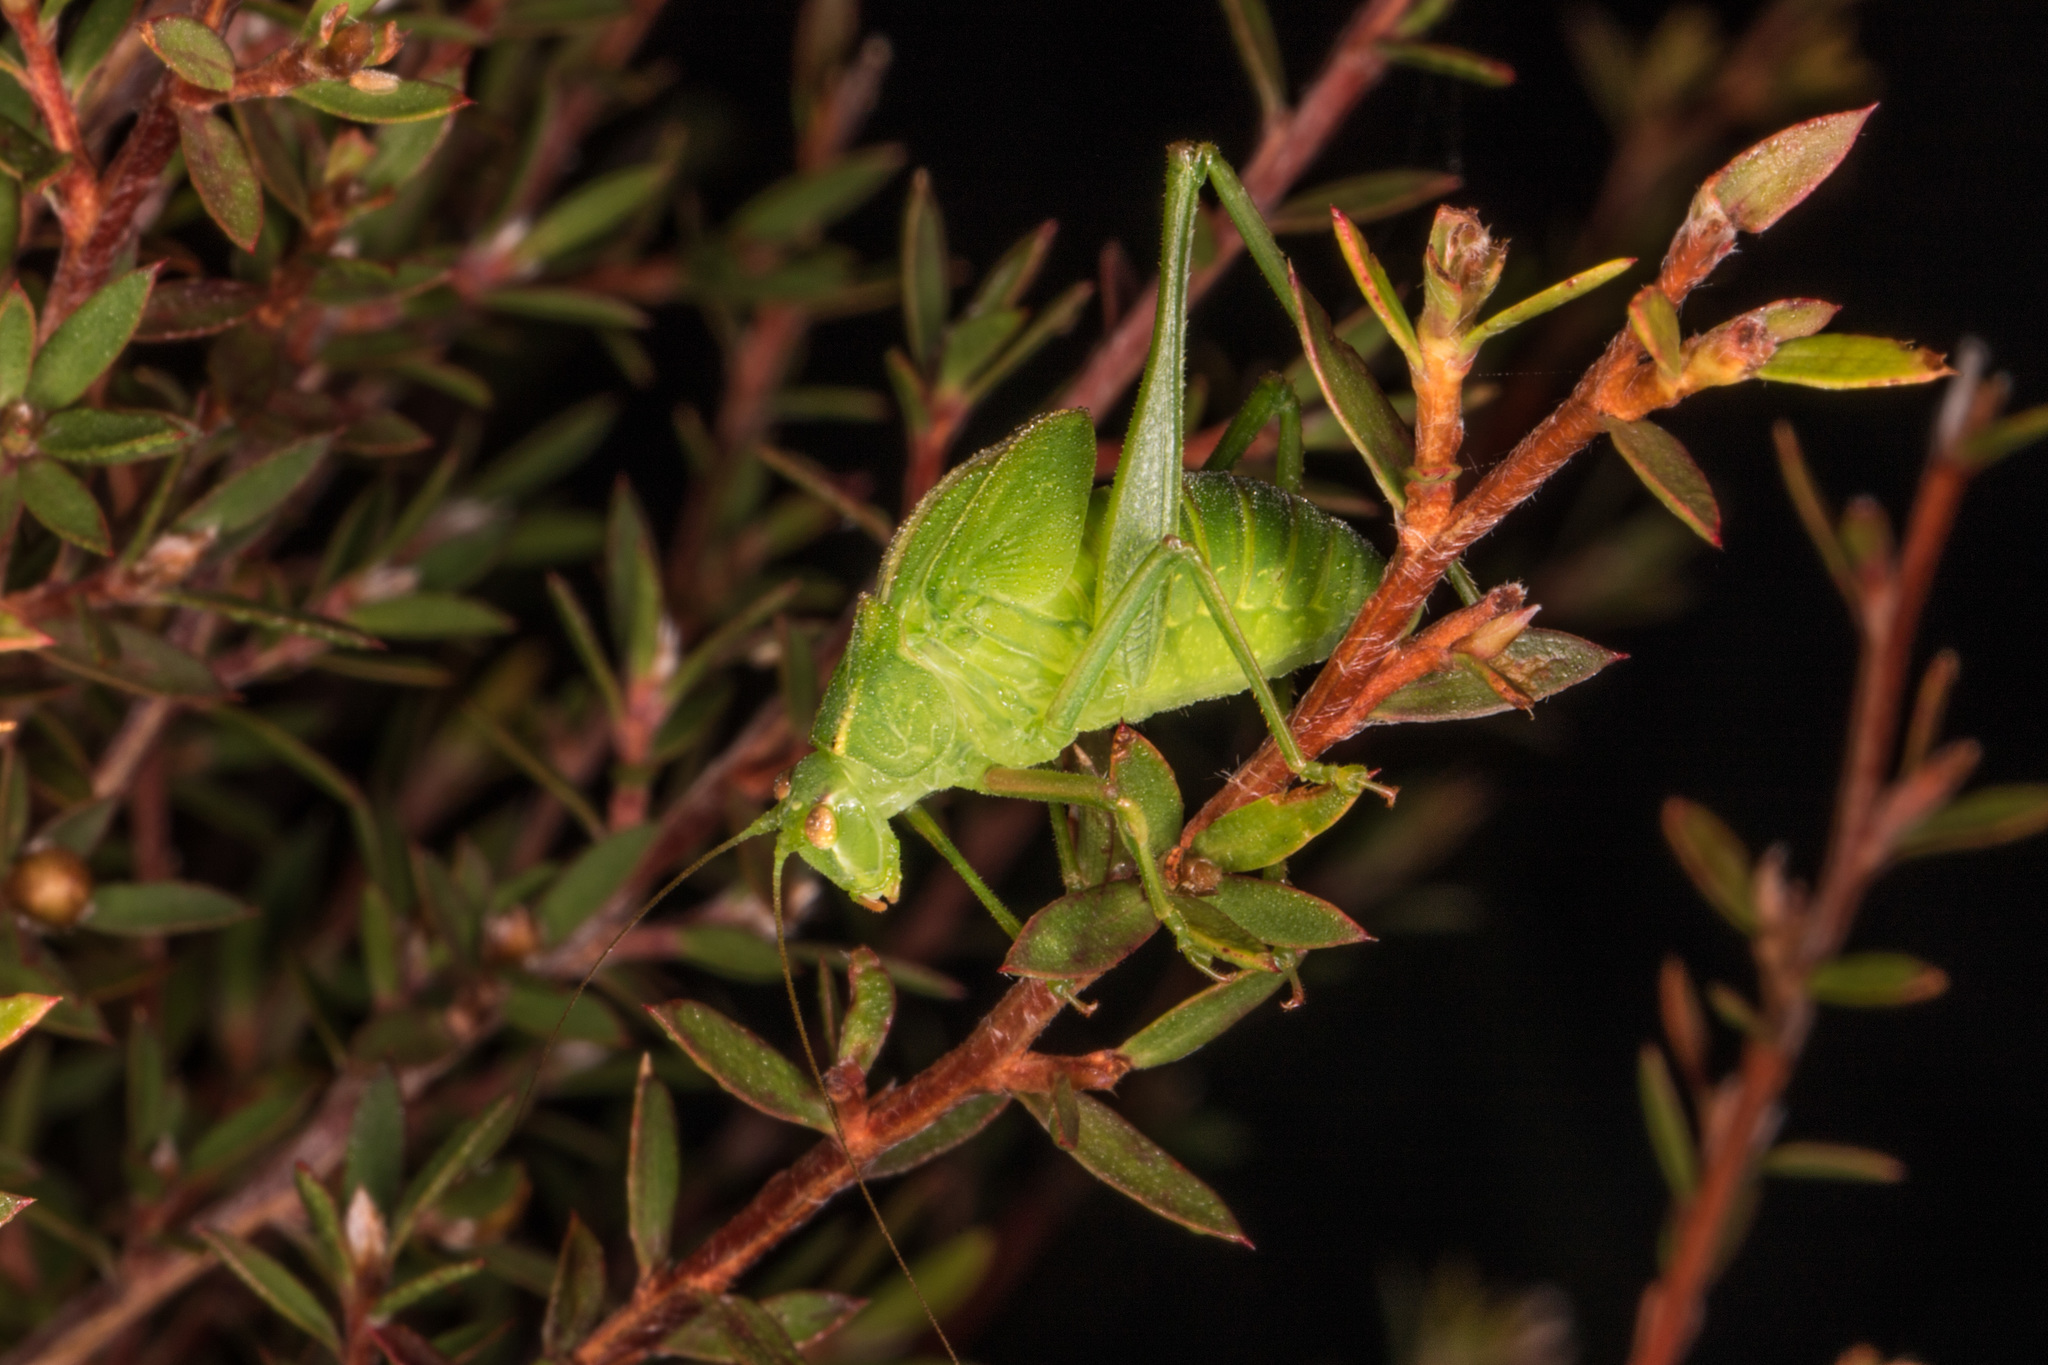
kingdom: Animalia
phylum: Arthropoda
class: Insecta
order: Orthoptera
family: Tettigoniidae
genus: Caedicia
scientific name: Caedicia simplex
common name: Common garden katydid
